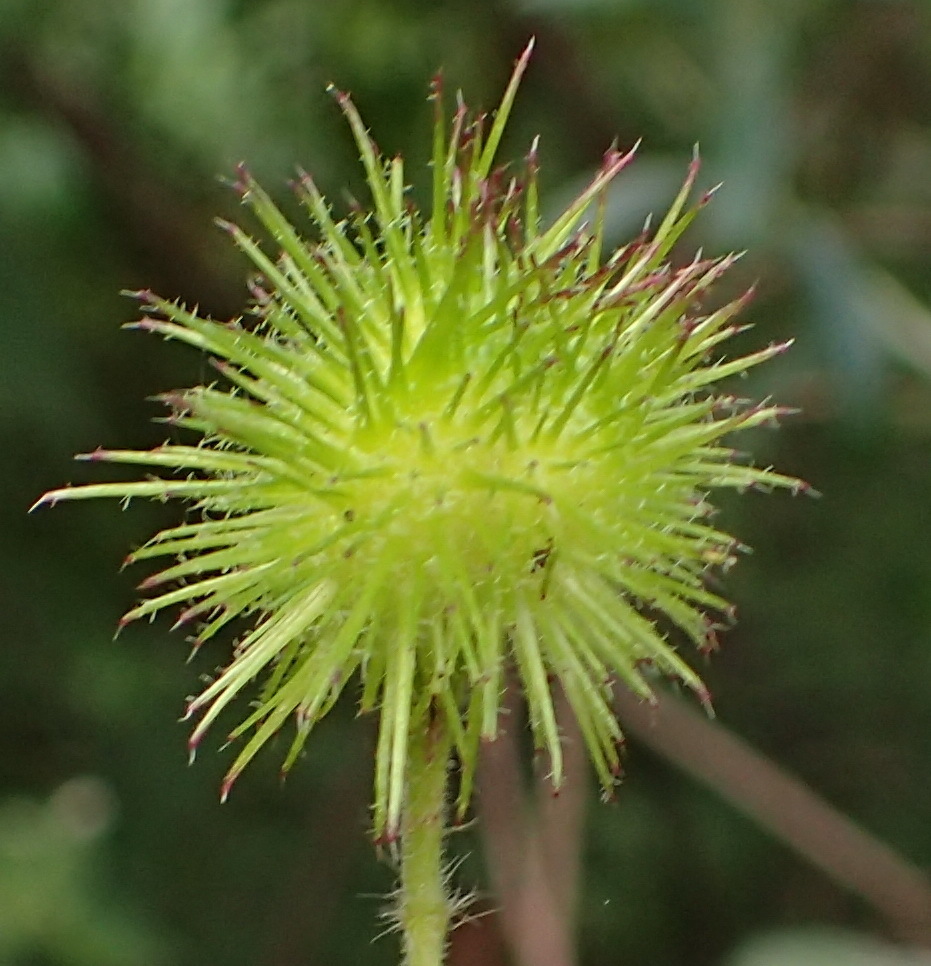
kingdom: Plantae
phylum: Tracheophyta
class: Magnoliopsida
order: Malvales
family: Malvaceae
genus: Sparrmannia
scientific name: Sparrmannia africana
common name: African-hemp
